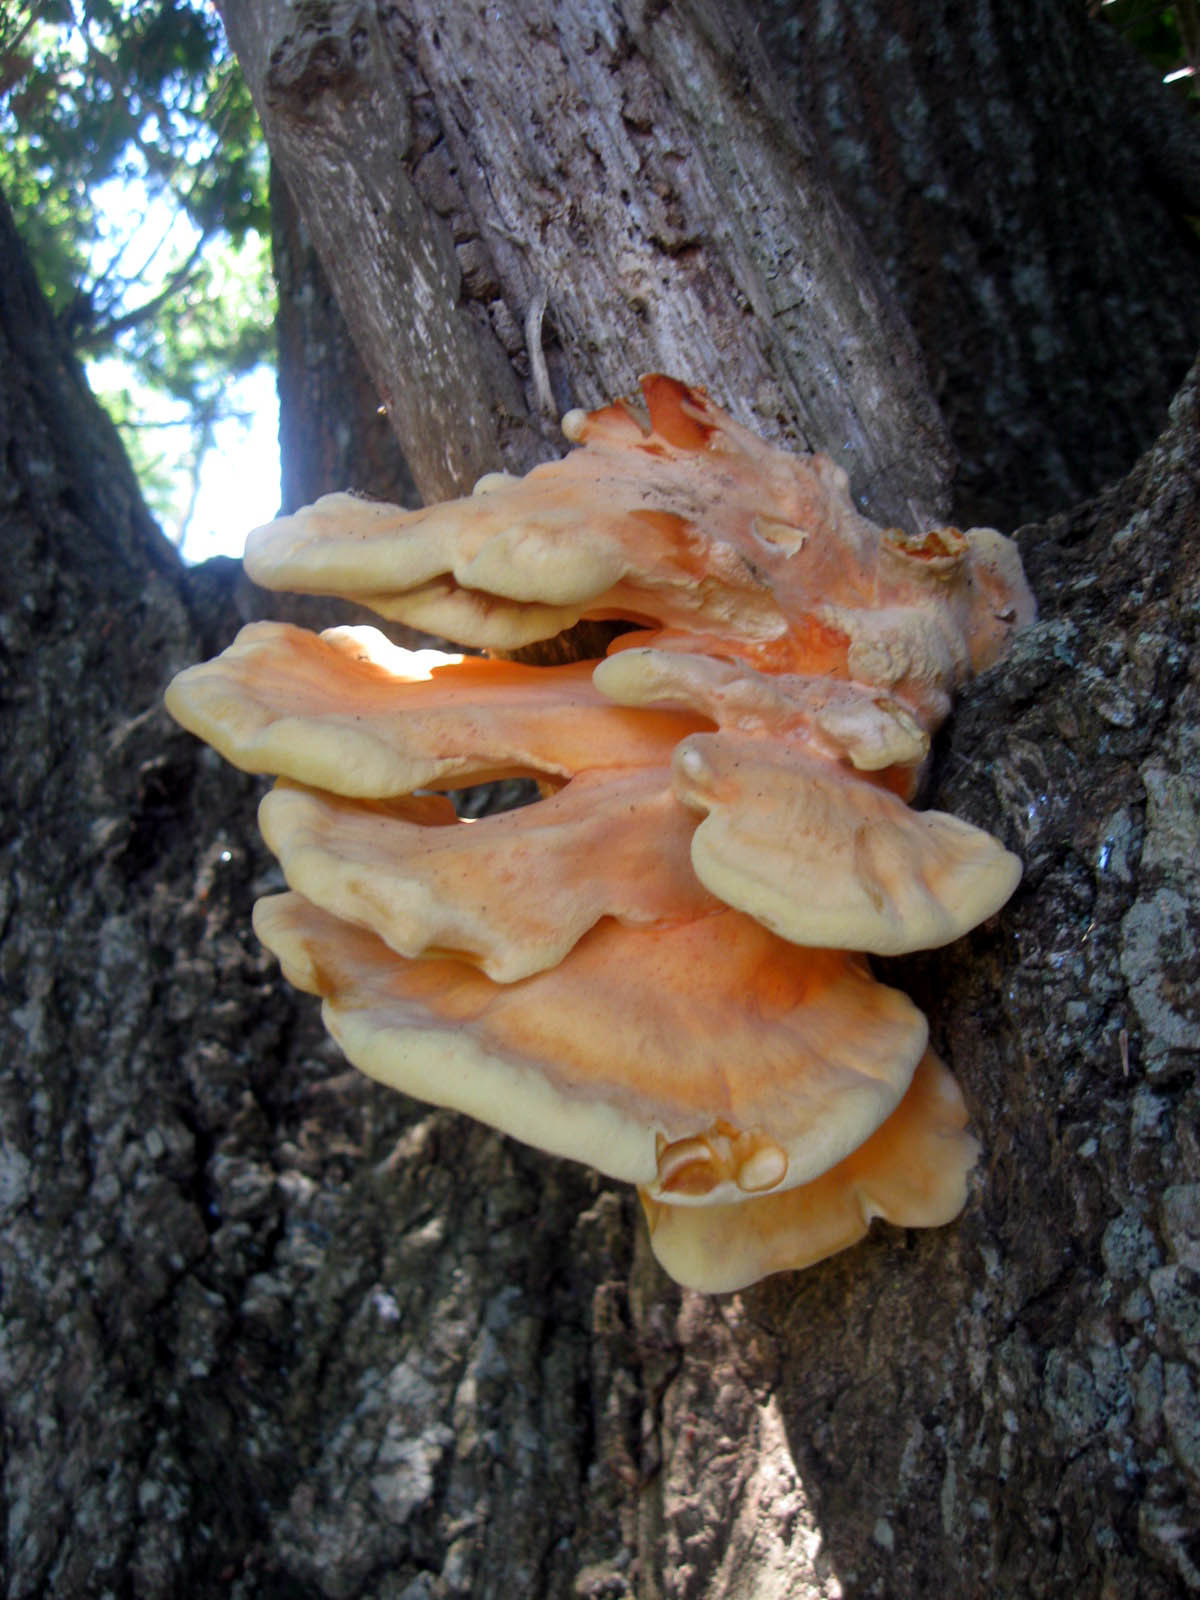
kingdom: Fungi
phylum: Basidiomycota
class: Agaricomycetes
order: Polyporales
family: Laetiporaceae
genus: Laetiporus
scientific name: Laetiporus sulphureus
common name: Chicken of the woods
